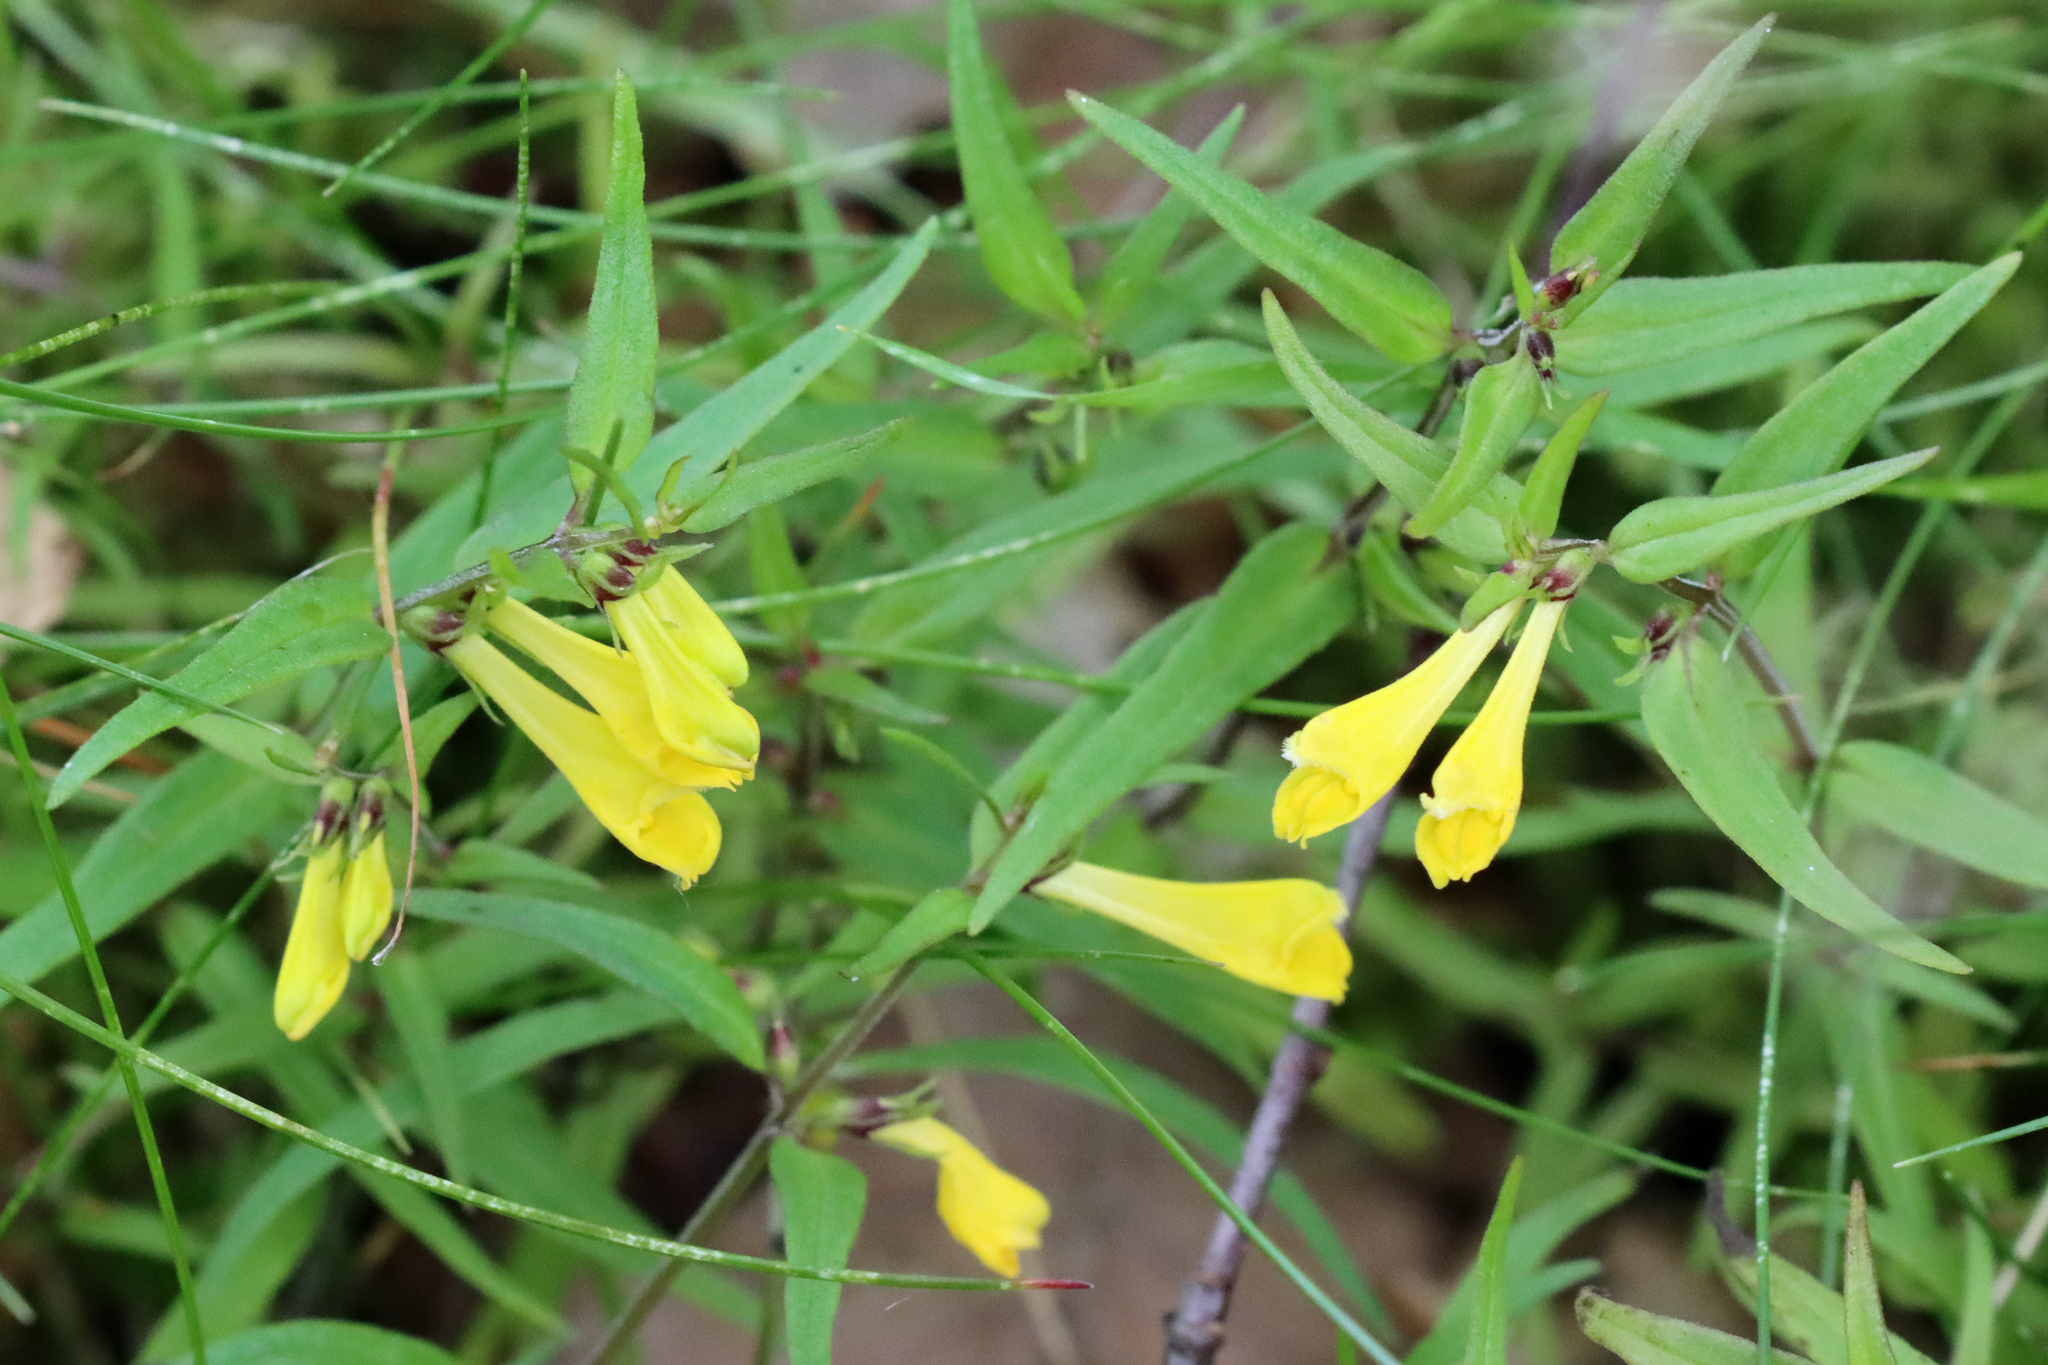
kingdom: Plantae
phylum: Tracheophyta
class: Magnoliopsida
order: Lamiales
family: Orobanchaceae
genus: Melampyrum
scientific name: Melampyrum pratense
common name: Common cow-wheat
